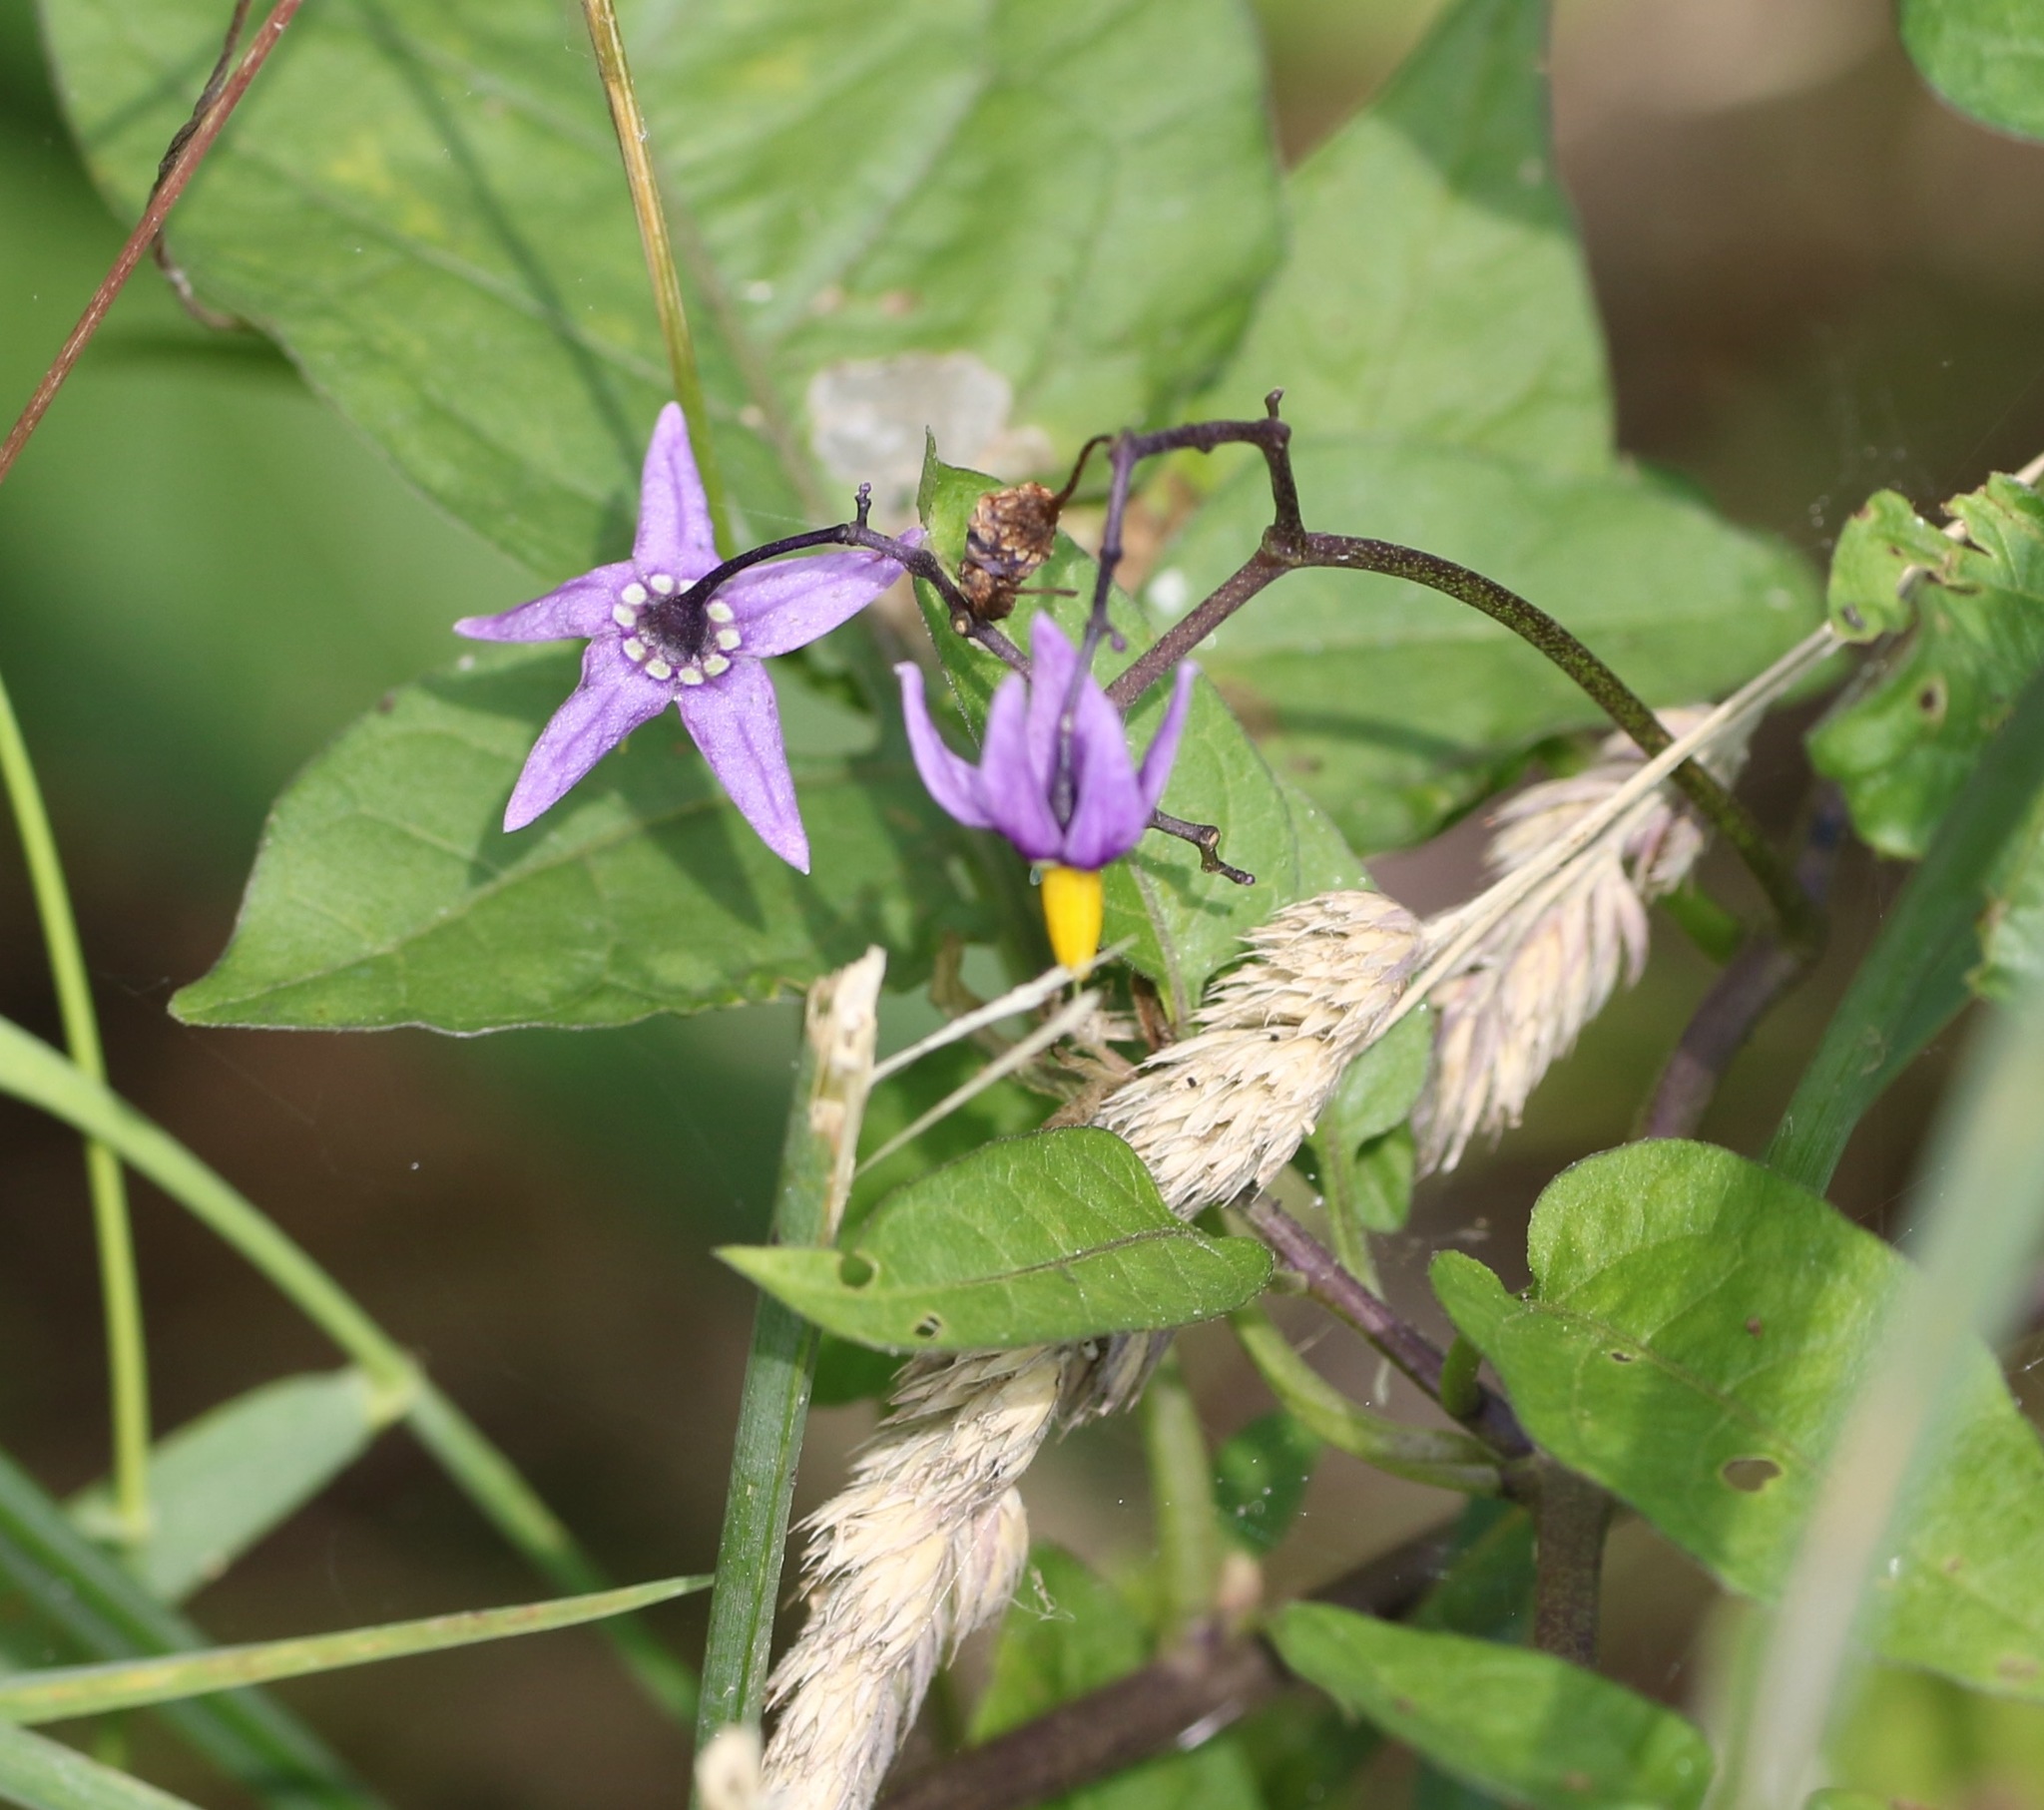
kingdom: Plantae
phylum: Tracheophyta
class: Magnoliopsida
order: Solanales
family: Solanaceae
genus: Solanum
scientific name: Solanum dulcamara
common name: Climbing nightshade
